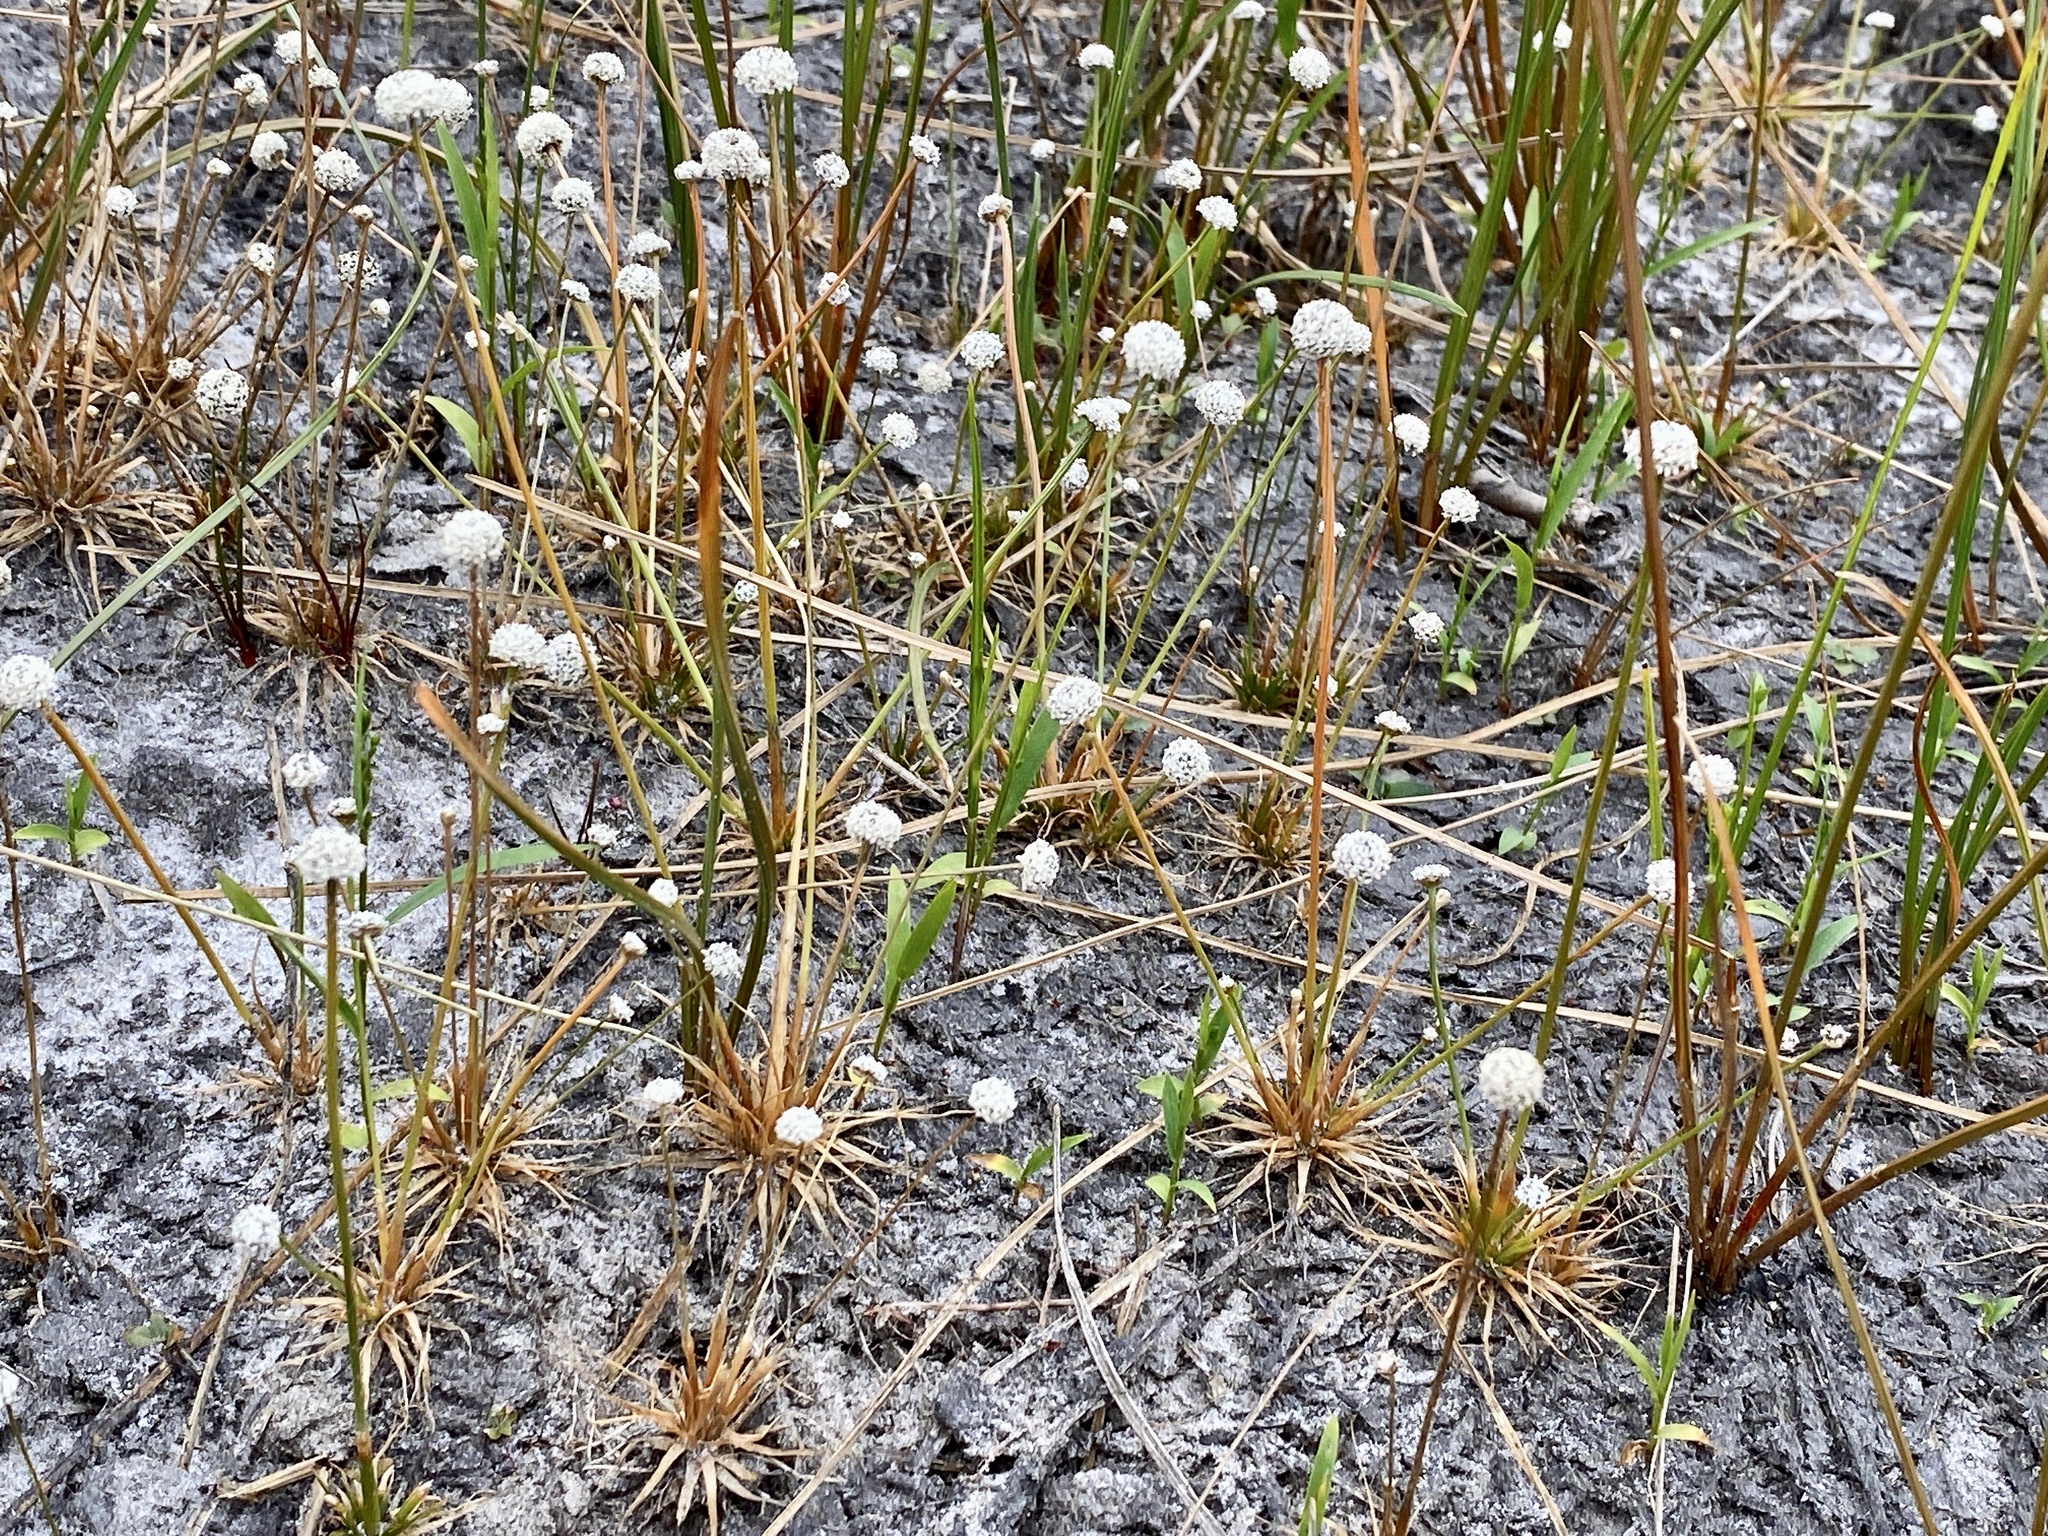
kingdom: Plantae
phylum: Tracheophyta
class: Liliopsida
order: Poales
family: Eriocaulaceae
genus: Eriocaulon
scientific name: Eriocaulon aquaticum
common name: Pipewort
